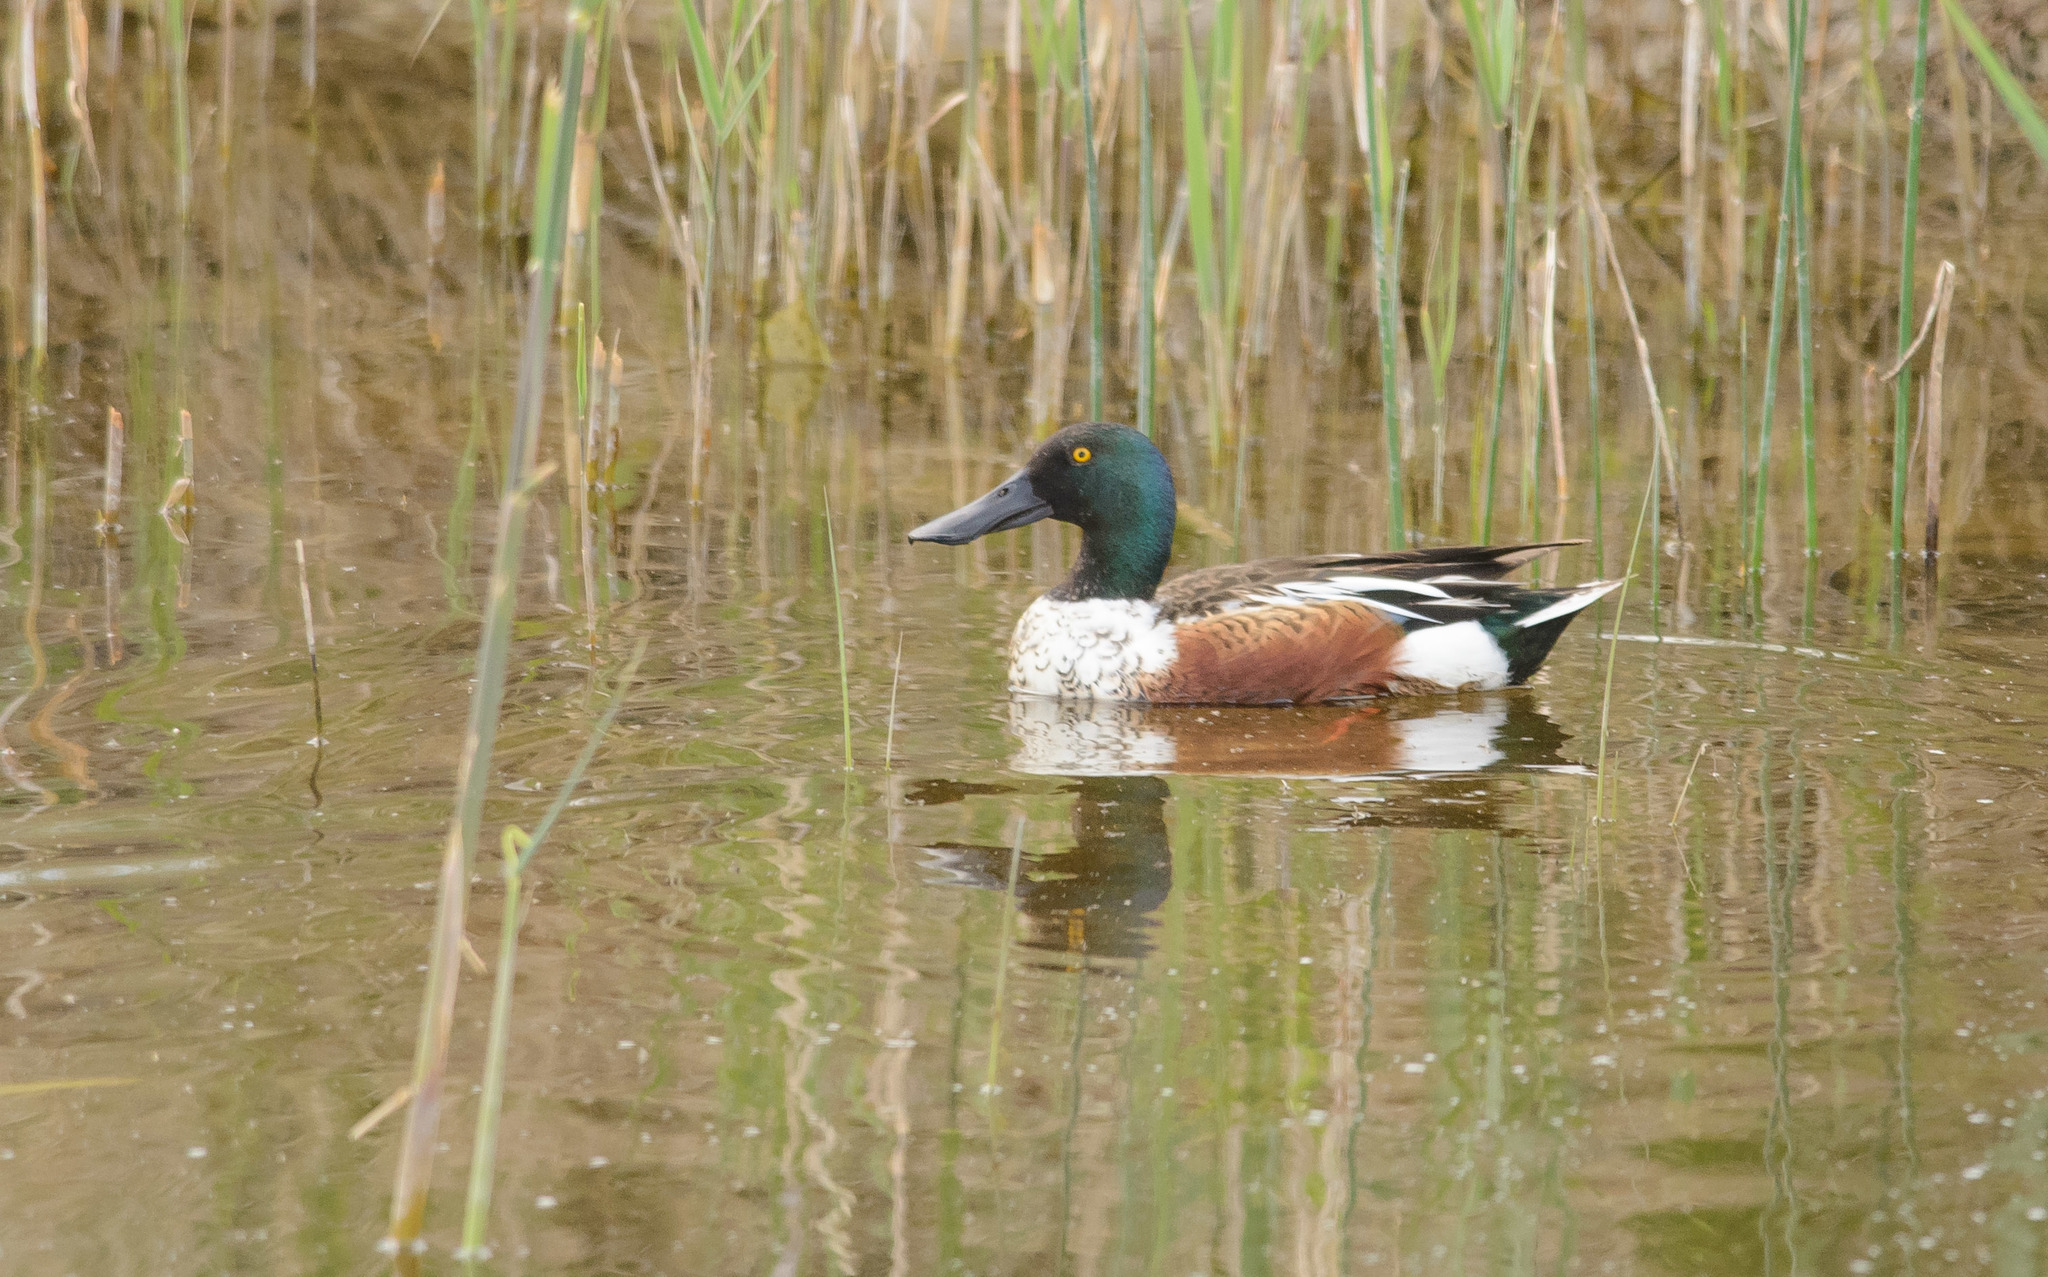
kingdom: Animalia
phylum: Chordata
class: Aves
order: Anseriformes
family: Anatidae
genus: Spatula
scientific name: Spatula clypeata
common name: Northern shoveler
